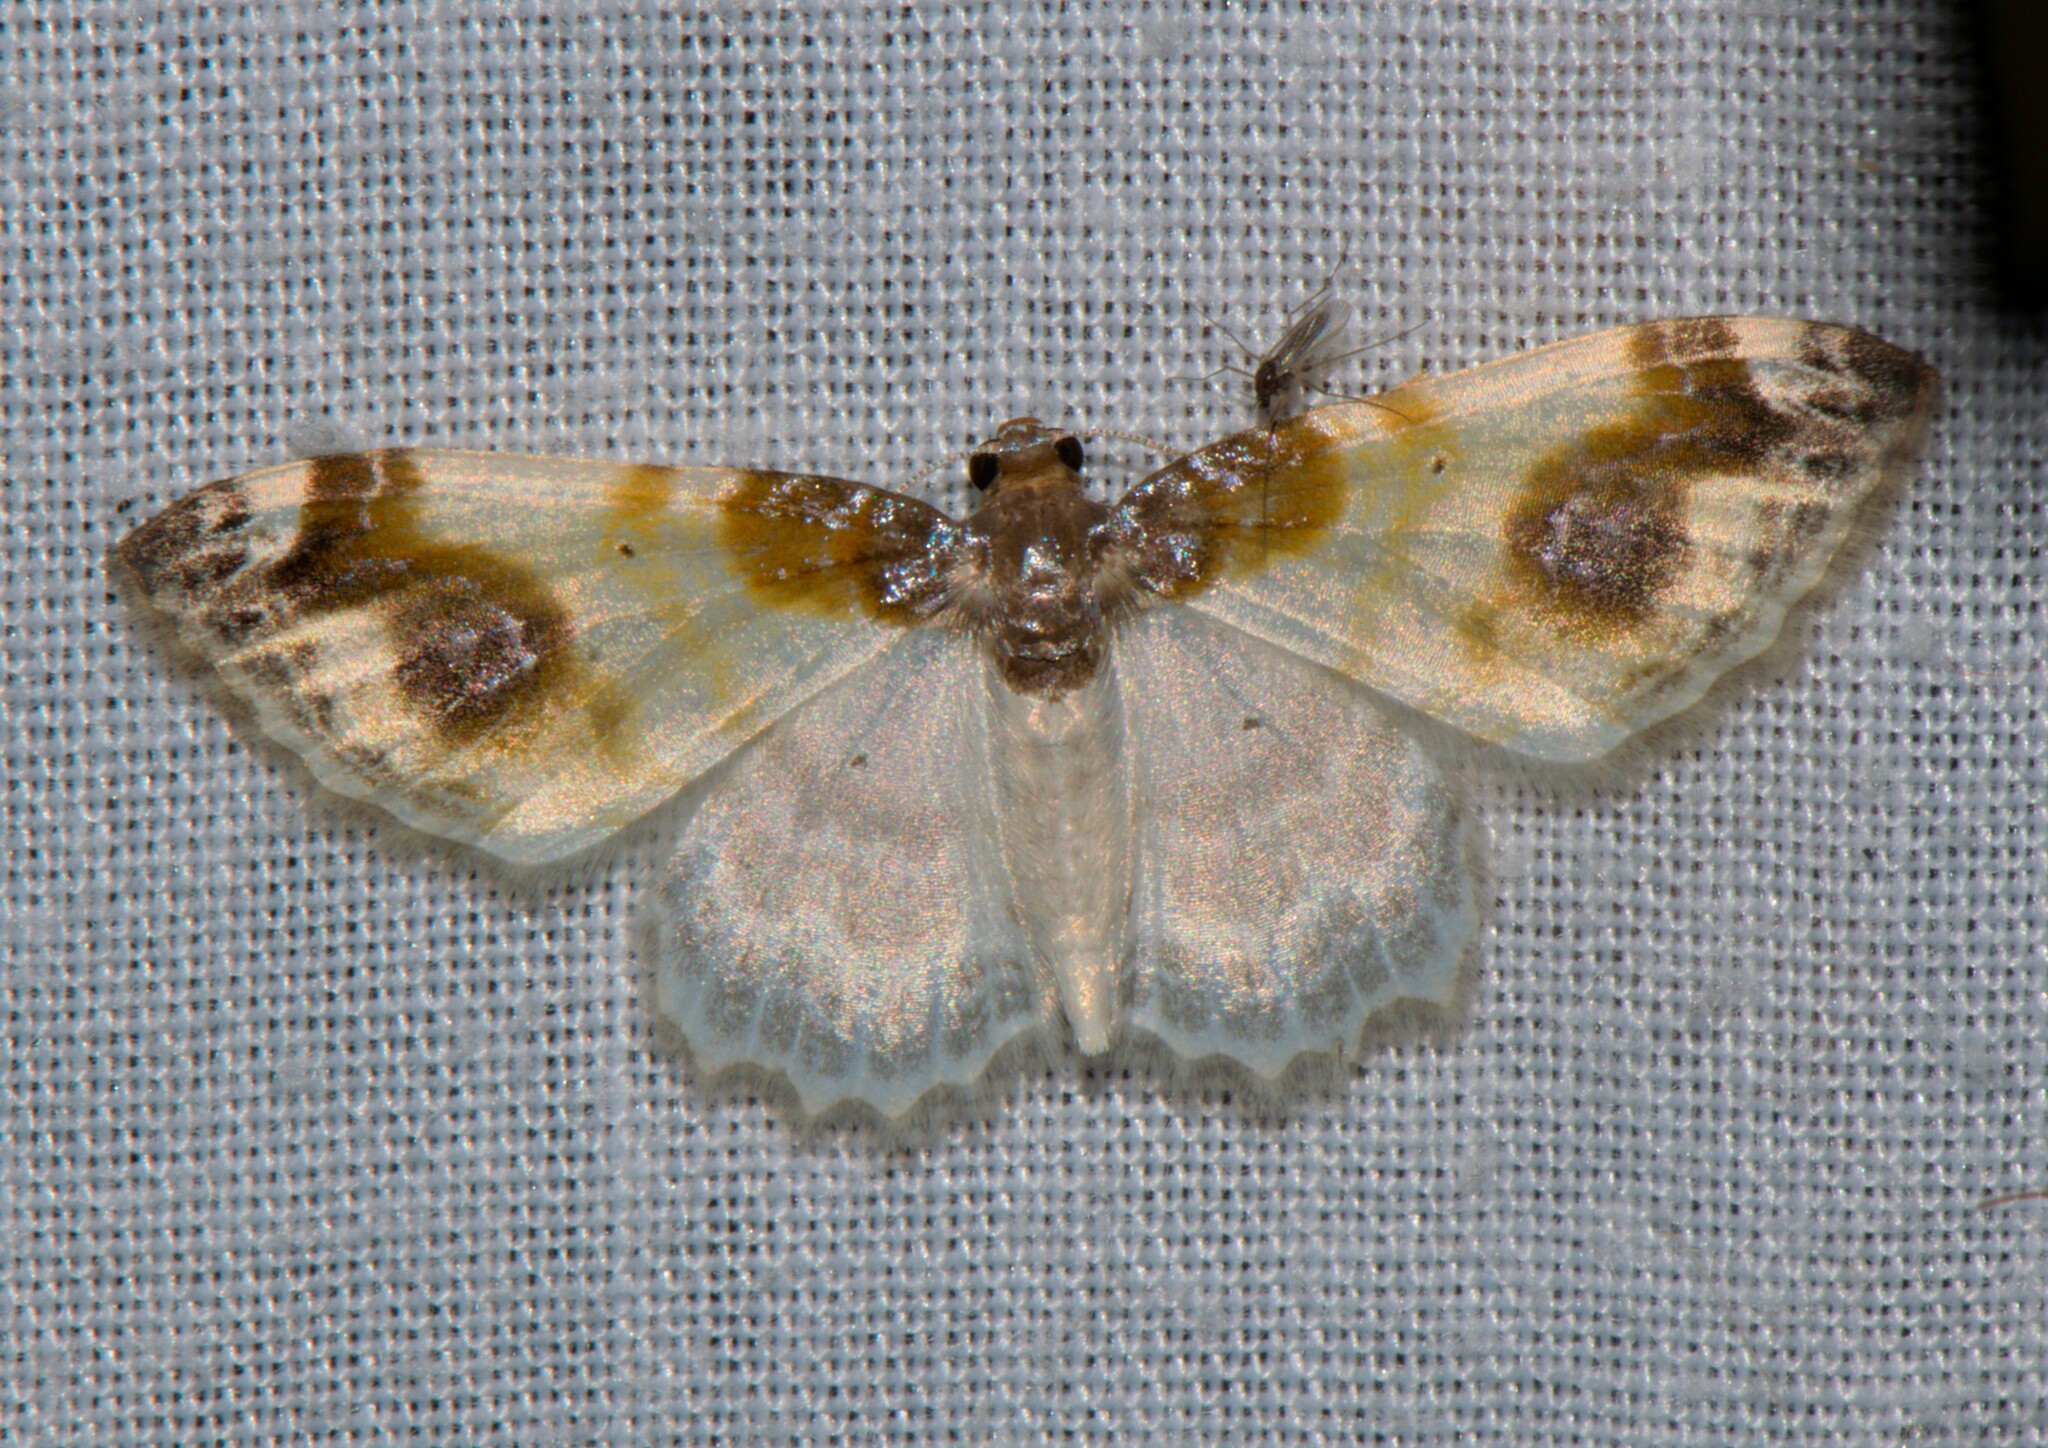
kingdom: Animalia
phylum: Arthropoda
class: Insecta
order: Lepidoptera
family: Geometridae
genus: Agnibesa
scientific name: Agnibesa pictaria
